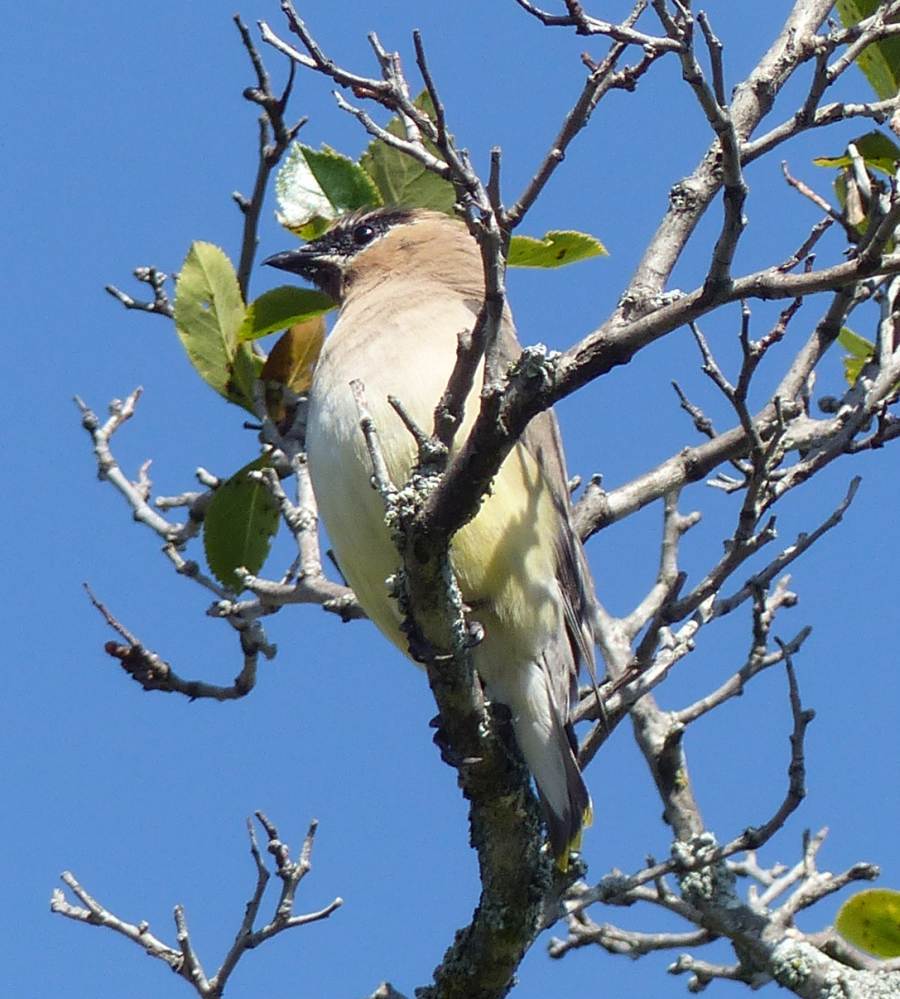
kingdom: Animalia
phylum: Chordata
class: Aves
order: Passeriformes
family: Bombycillidae
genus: Bombycilla
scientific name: Bombycilla cedrorum
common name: Cedar waxwing
